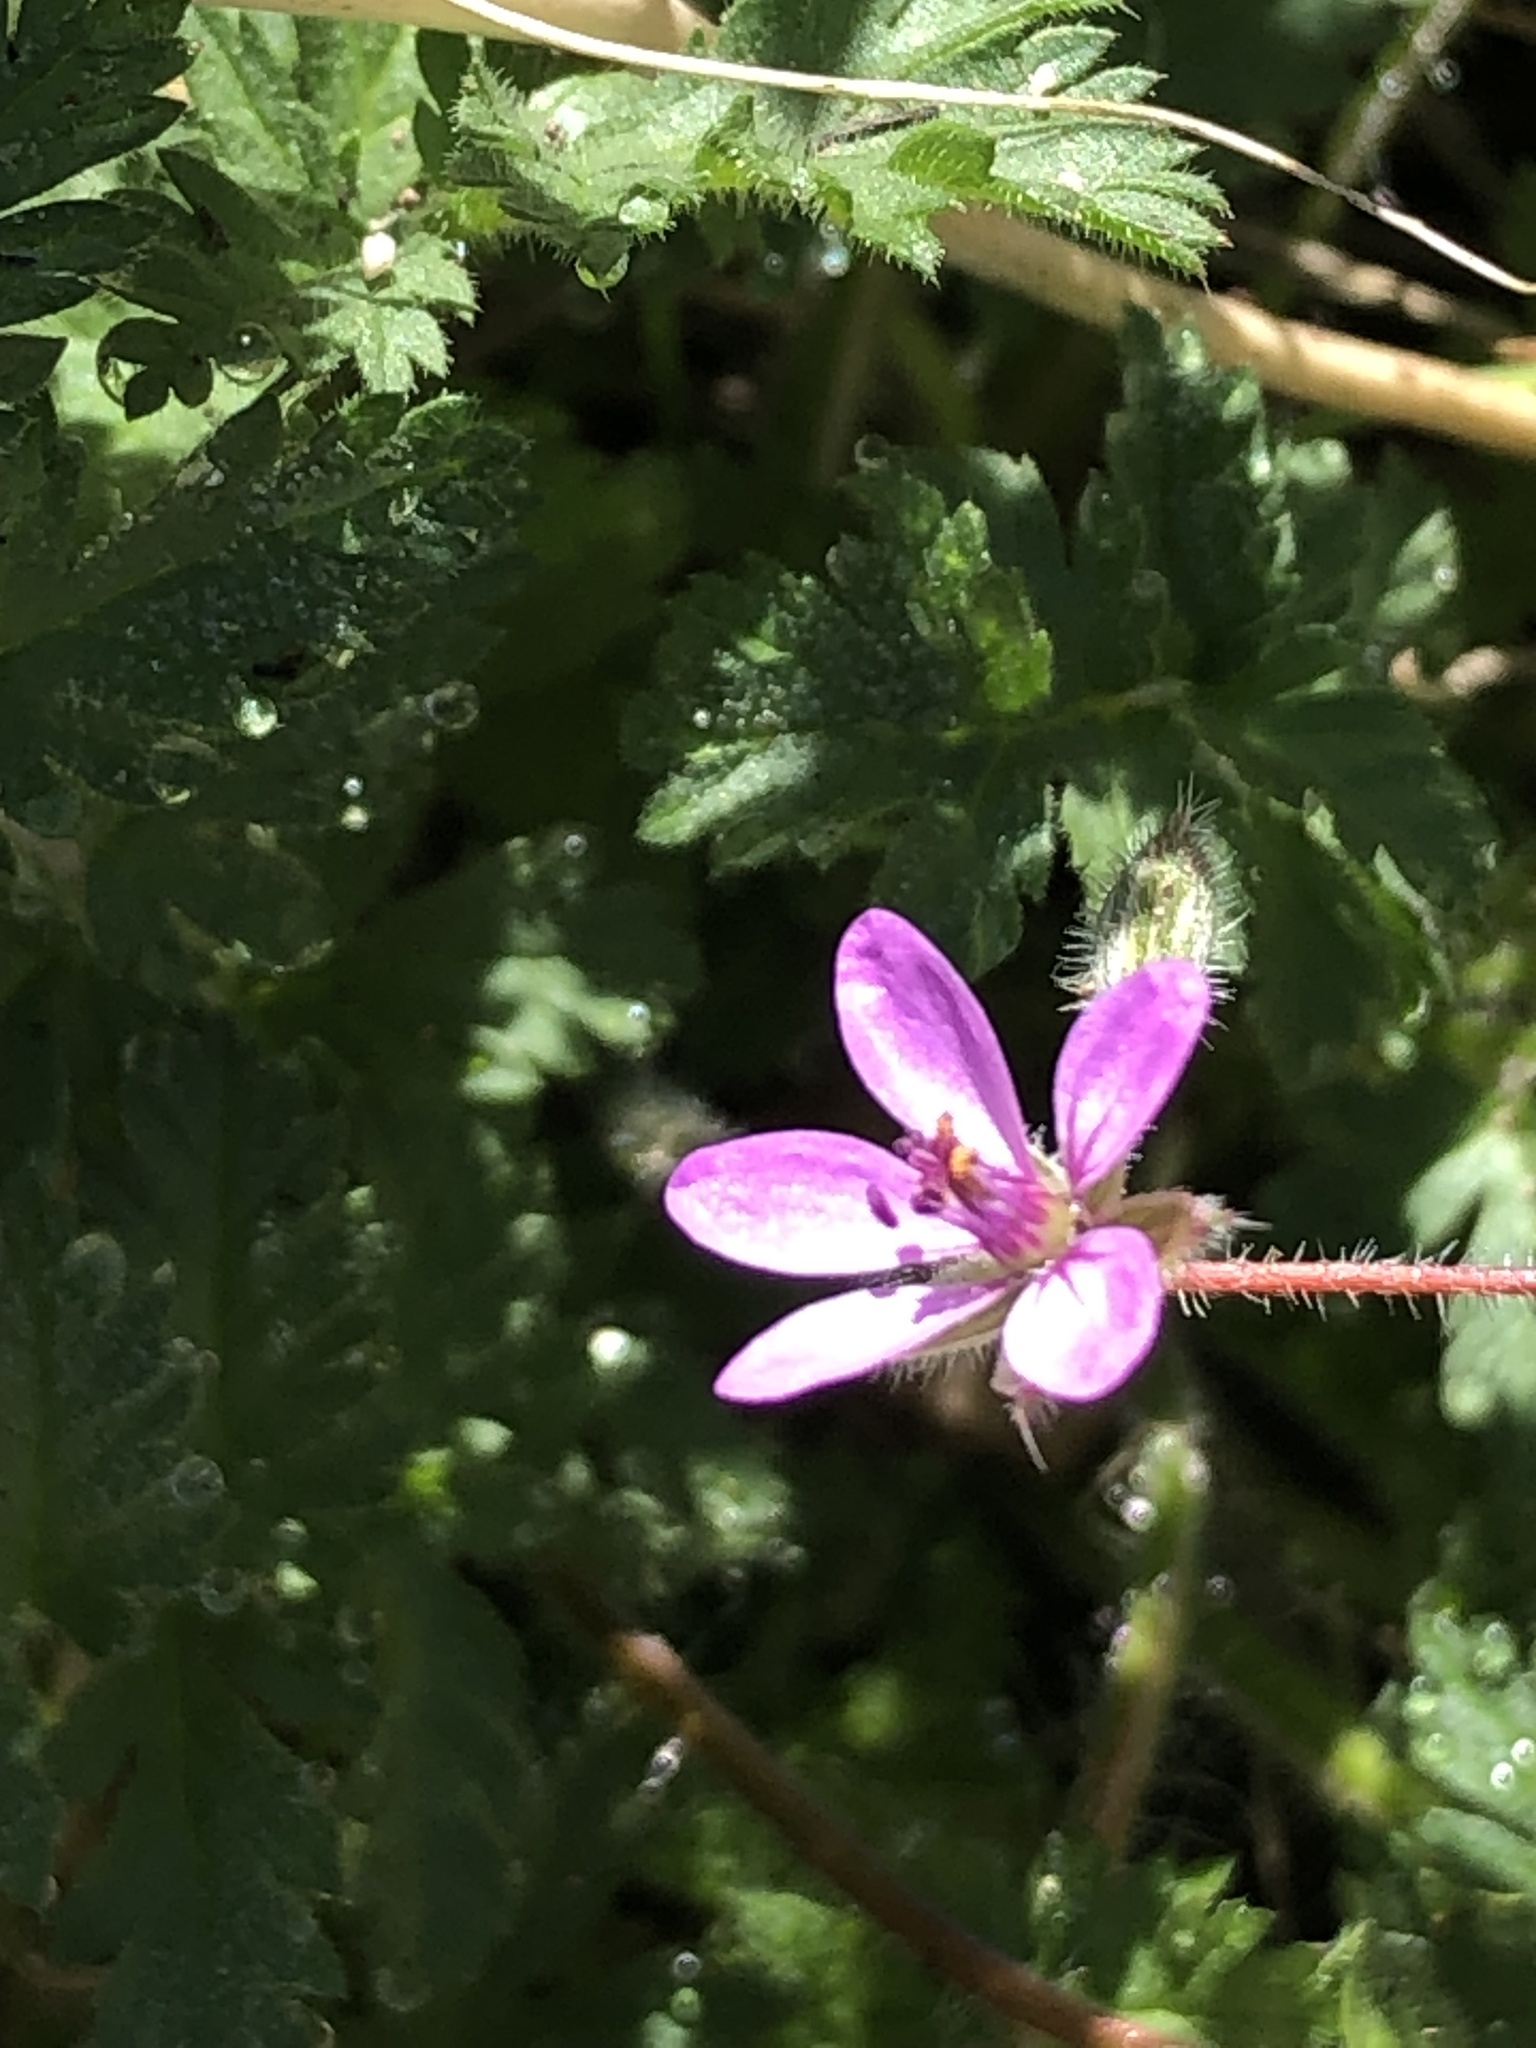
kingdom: Plantae
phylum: Tracheophyta
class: Magnoliopsida
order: Geraniales
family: Geraniaceae
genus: Erodium
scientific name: Erodium cicutarium
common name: Common stork's-bill
